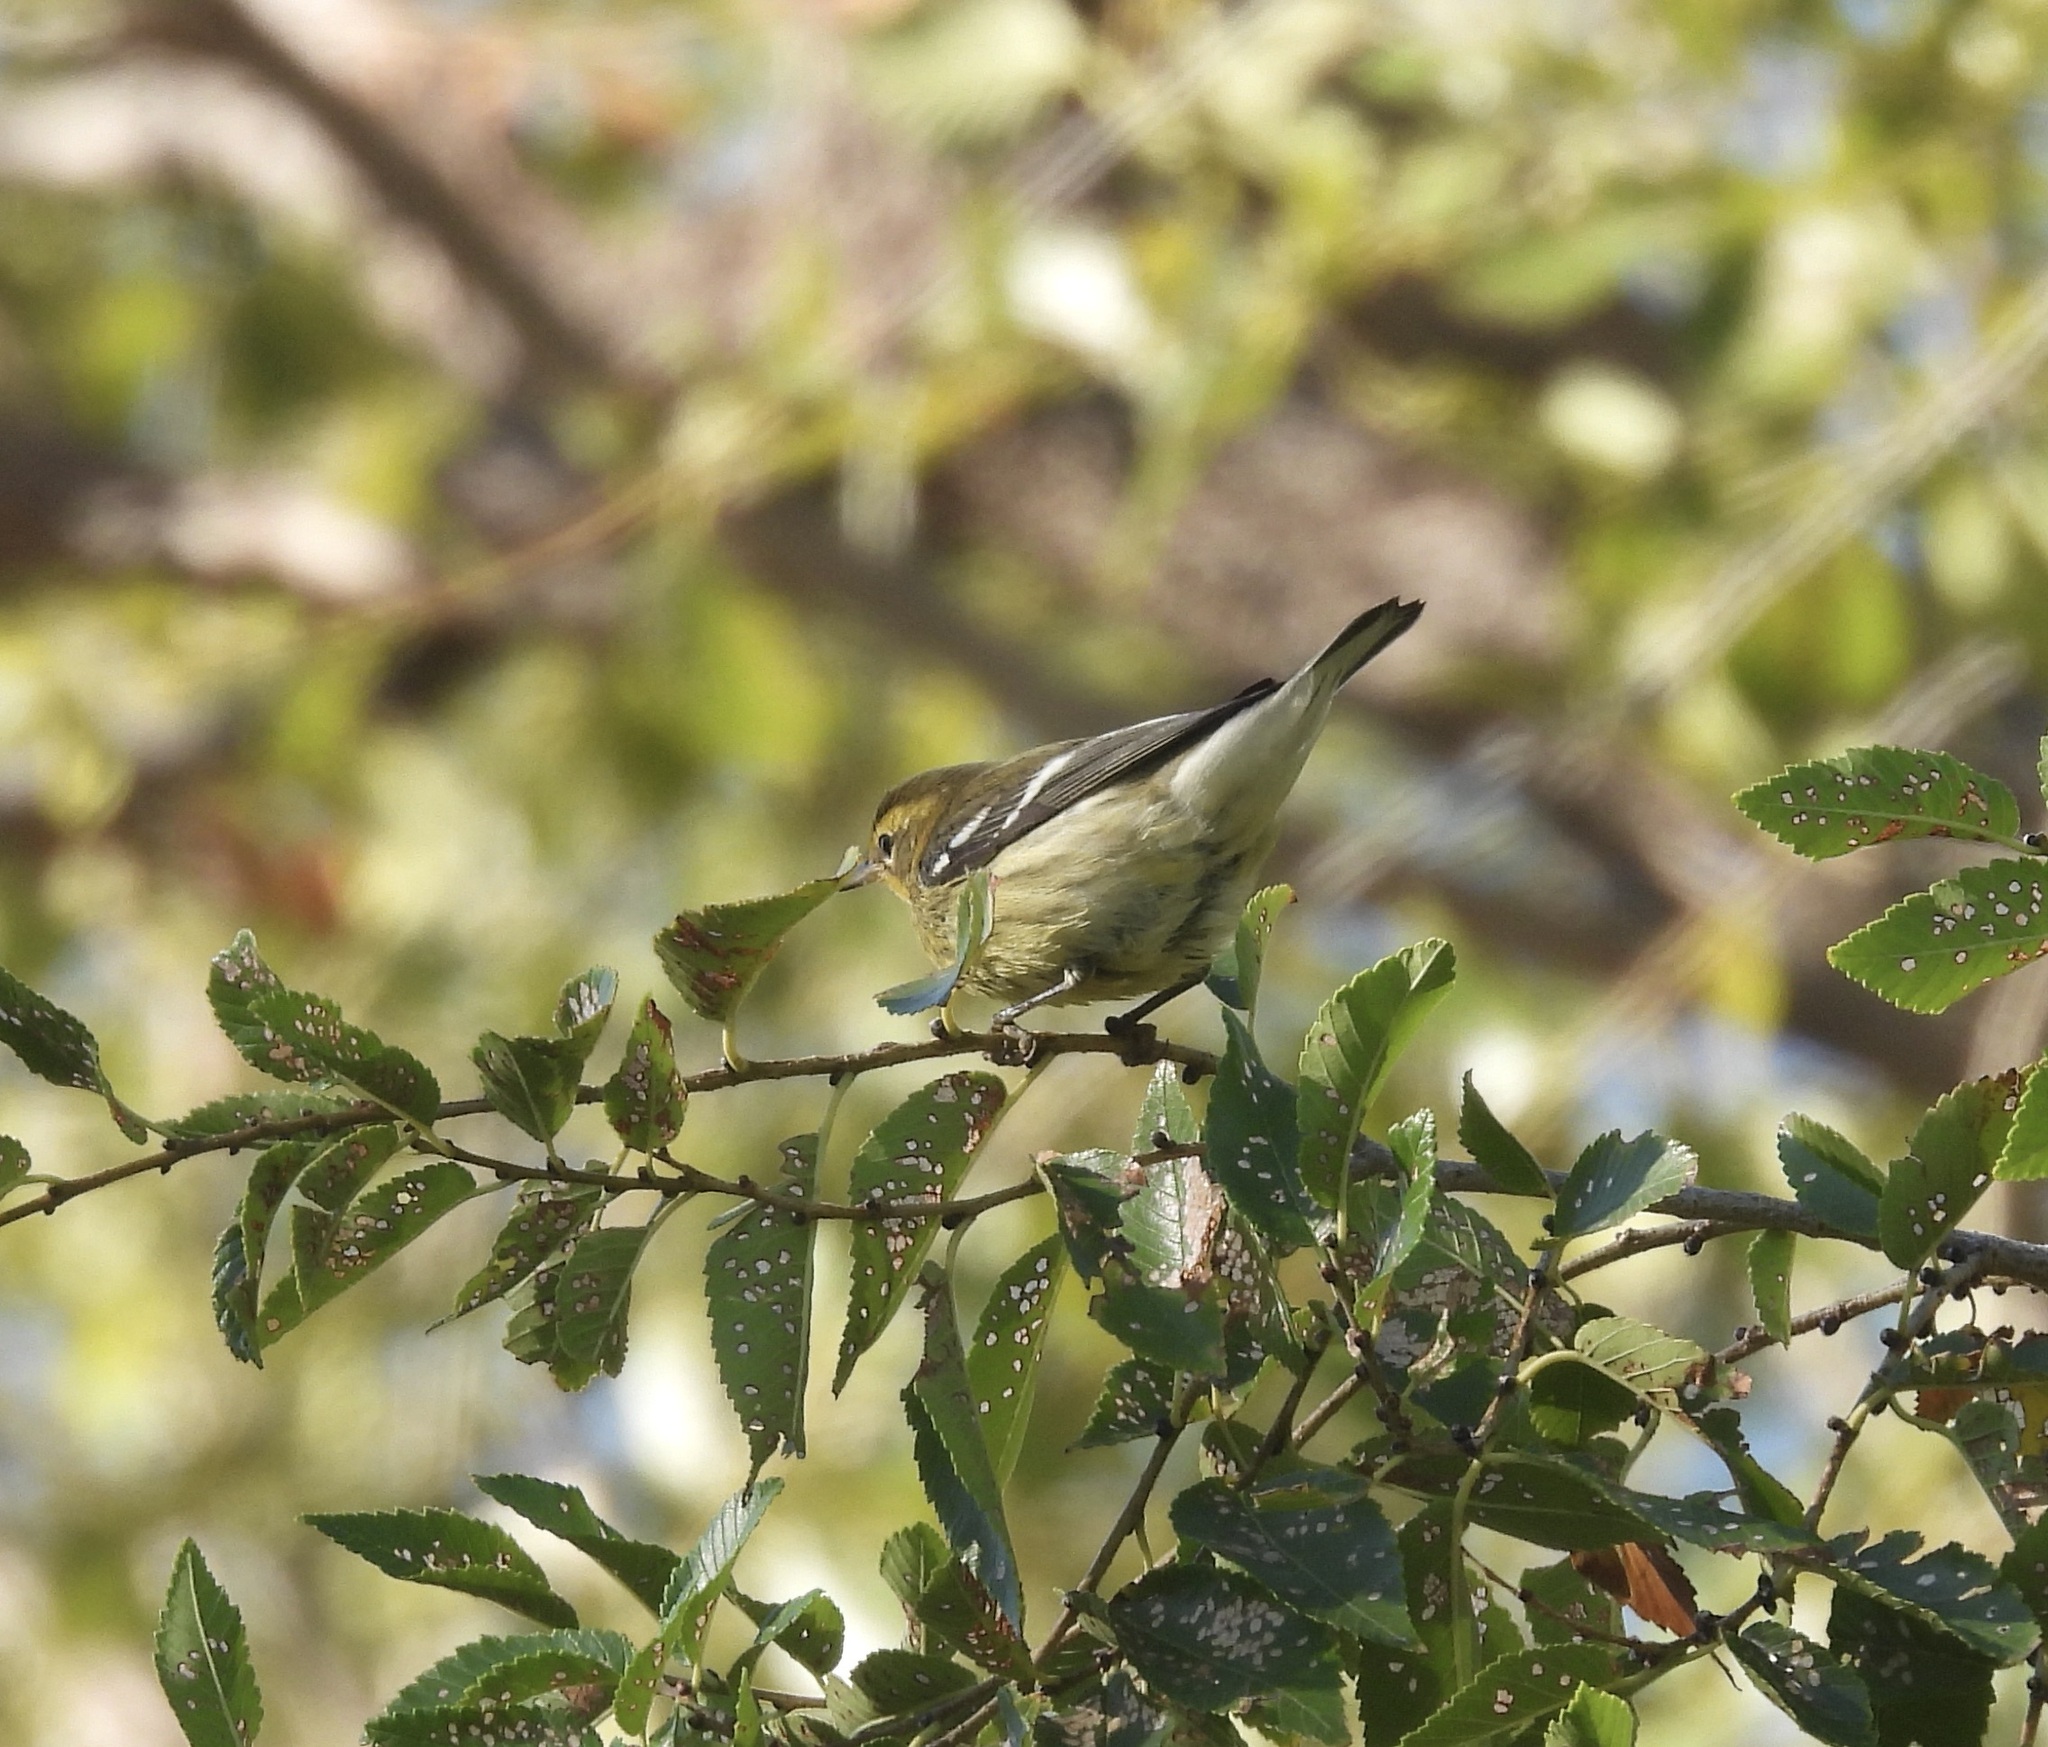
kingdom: Animalia
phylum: Chordata
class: Aves
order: Passeriformes
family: Parulidae
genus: Setophaga
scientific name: Setophaga fusca
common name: Blackburnian warbler
